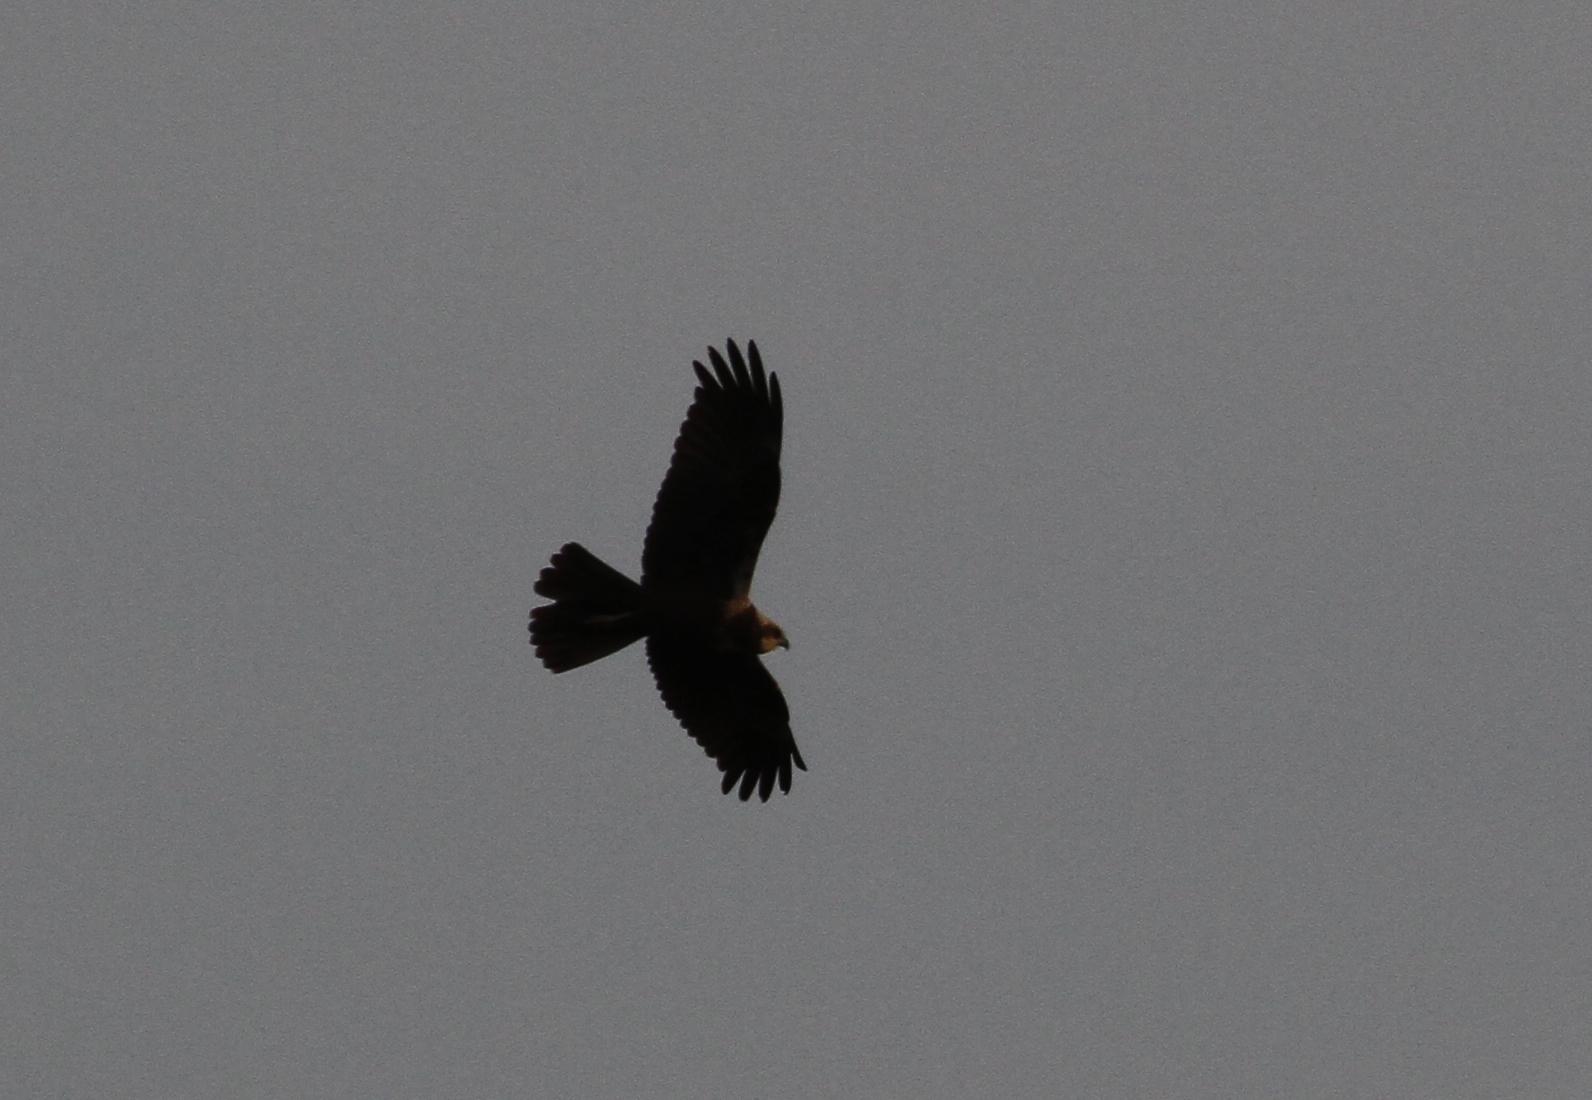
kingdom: Animalia
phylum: Chordata
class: Aves
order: Accipitriformes
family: Accipitridae
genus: Circus
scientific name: Circus aeruginosus
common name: Western marsh harrier
